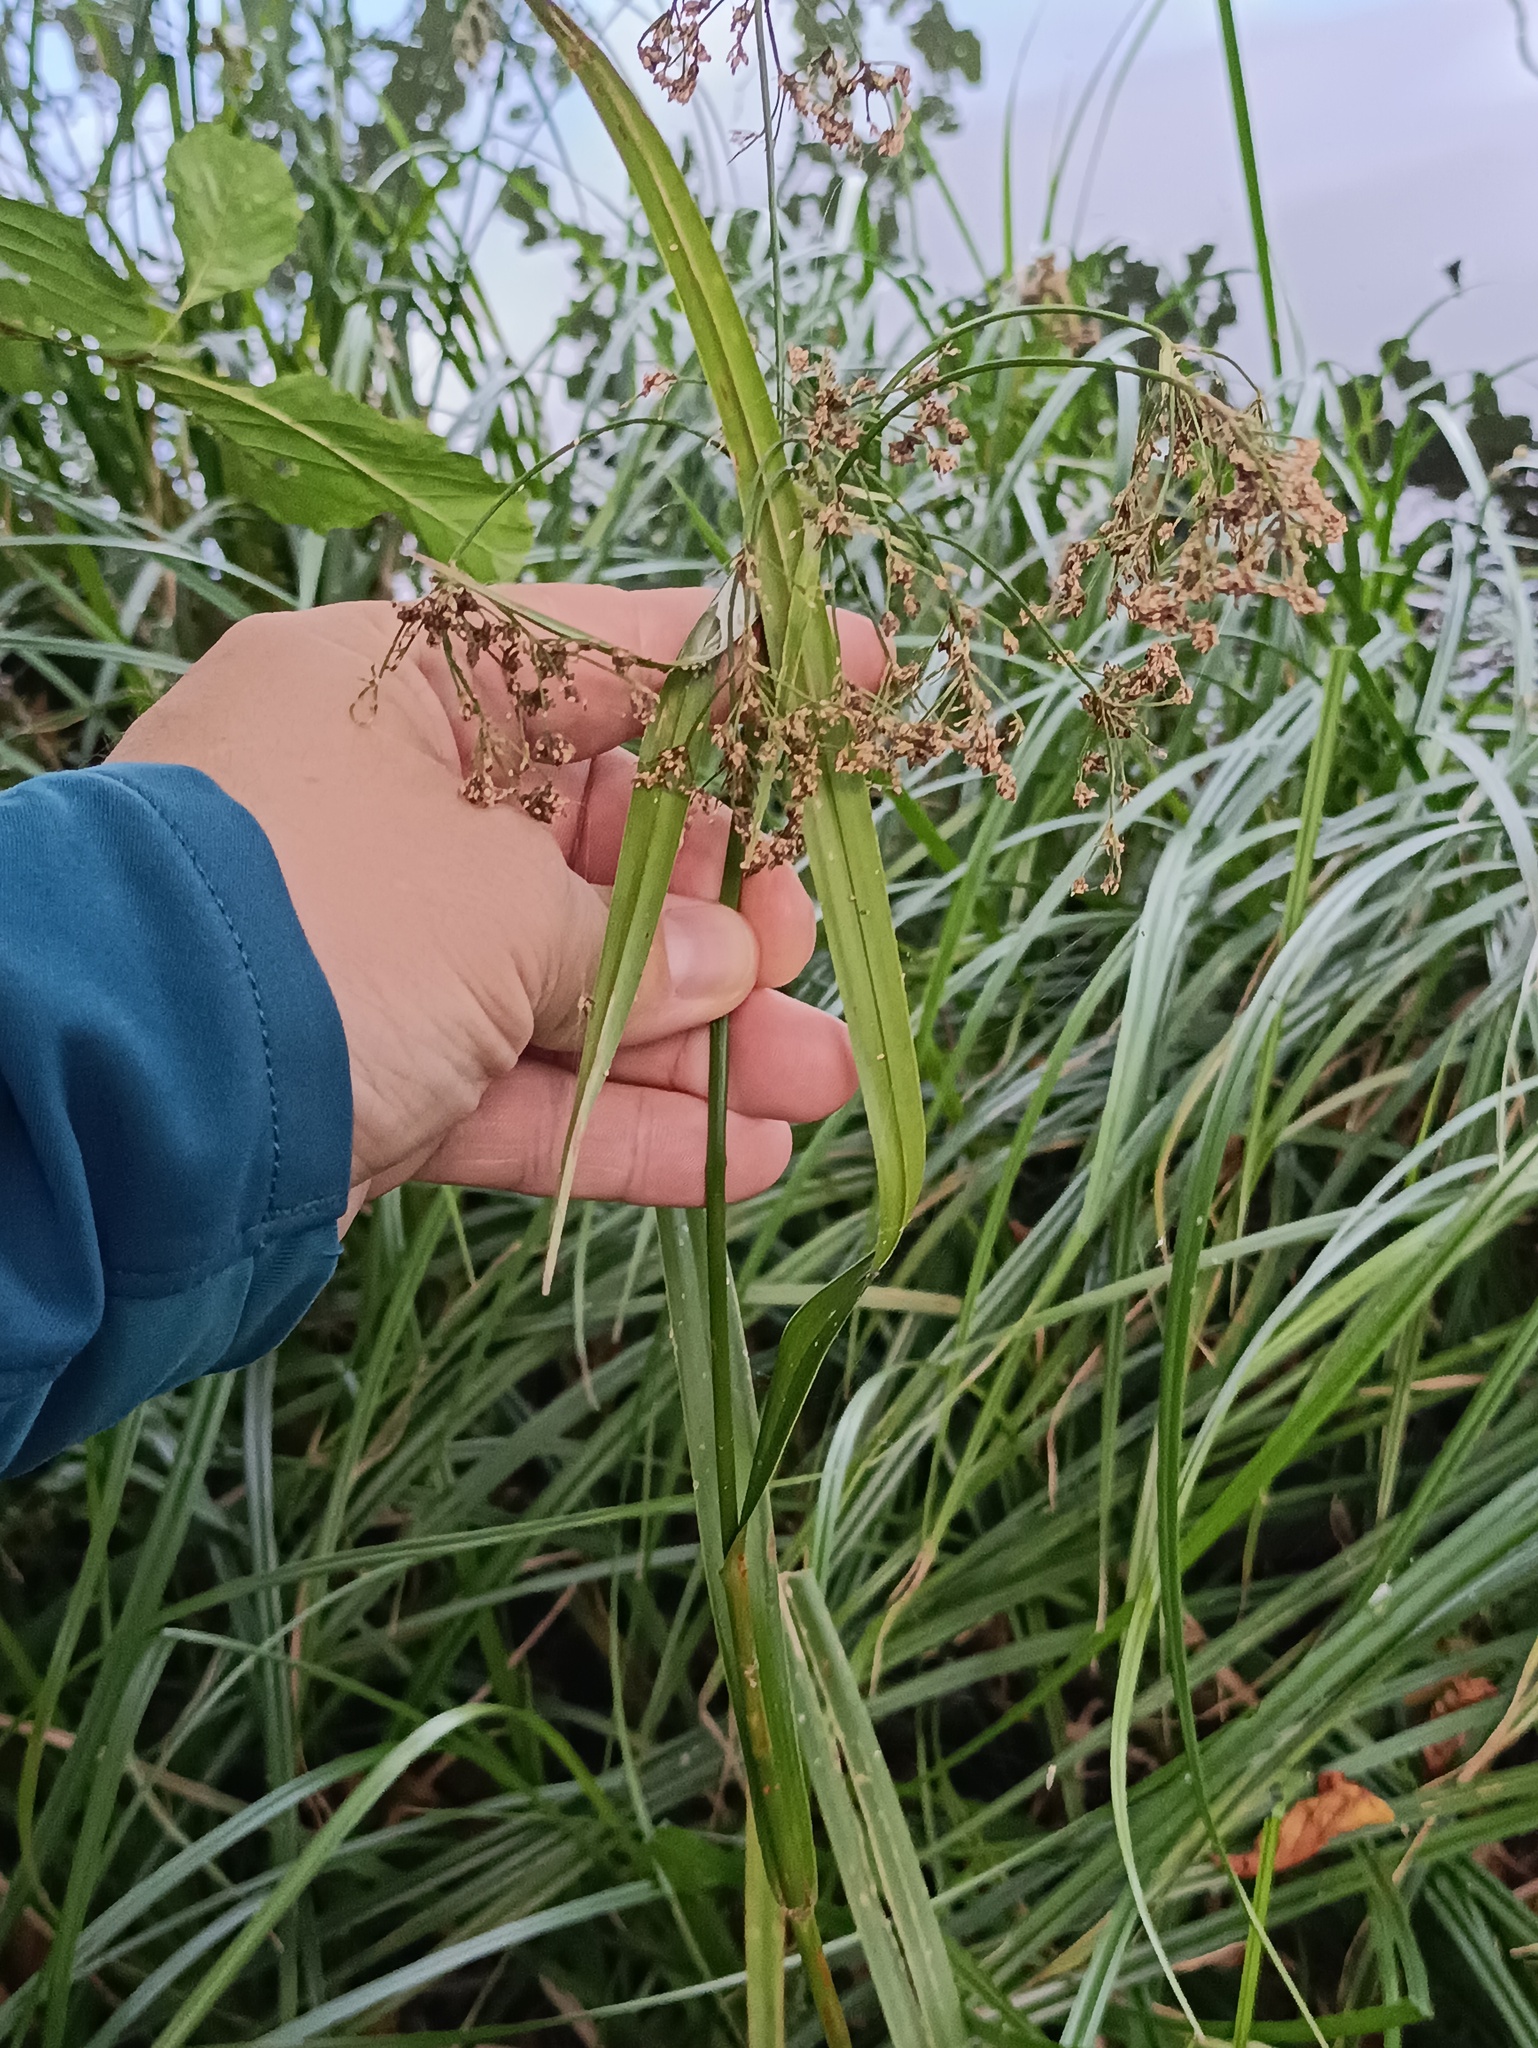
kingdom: Plantae
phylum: Tracheophyta
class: Liliopsida
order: Poales
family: Cyperaceae
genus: Scirpus
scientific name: Scirpus sylvaticus
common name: Wood club-rush
